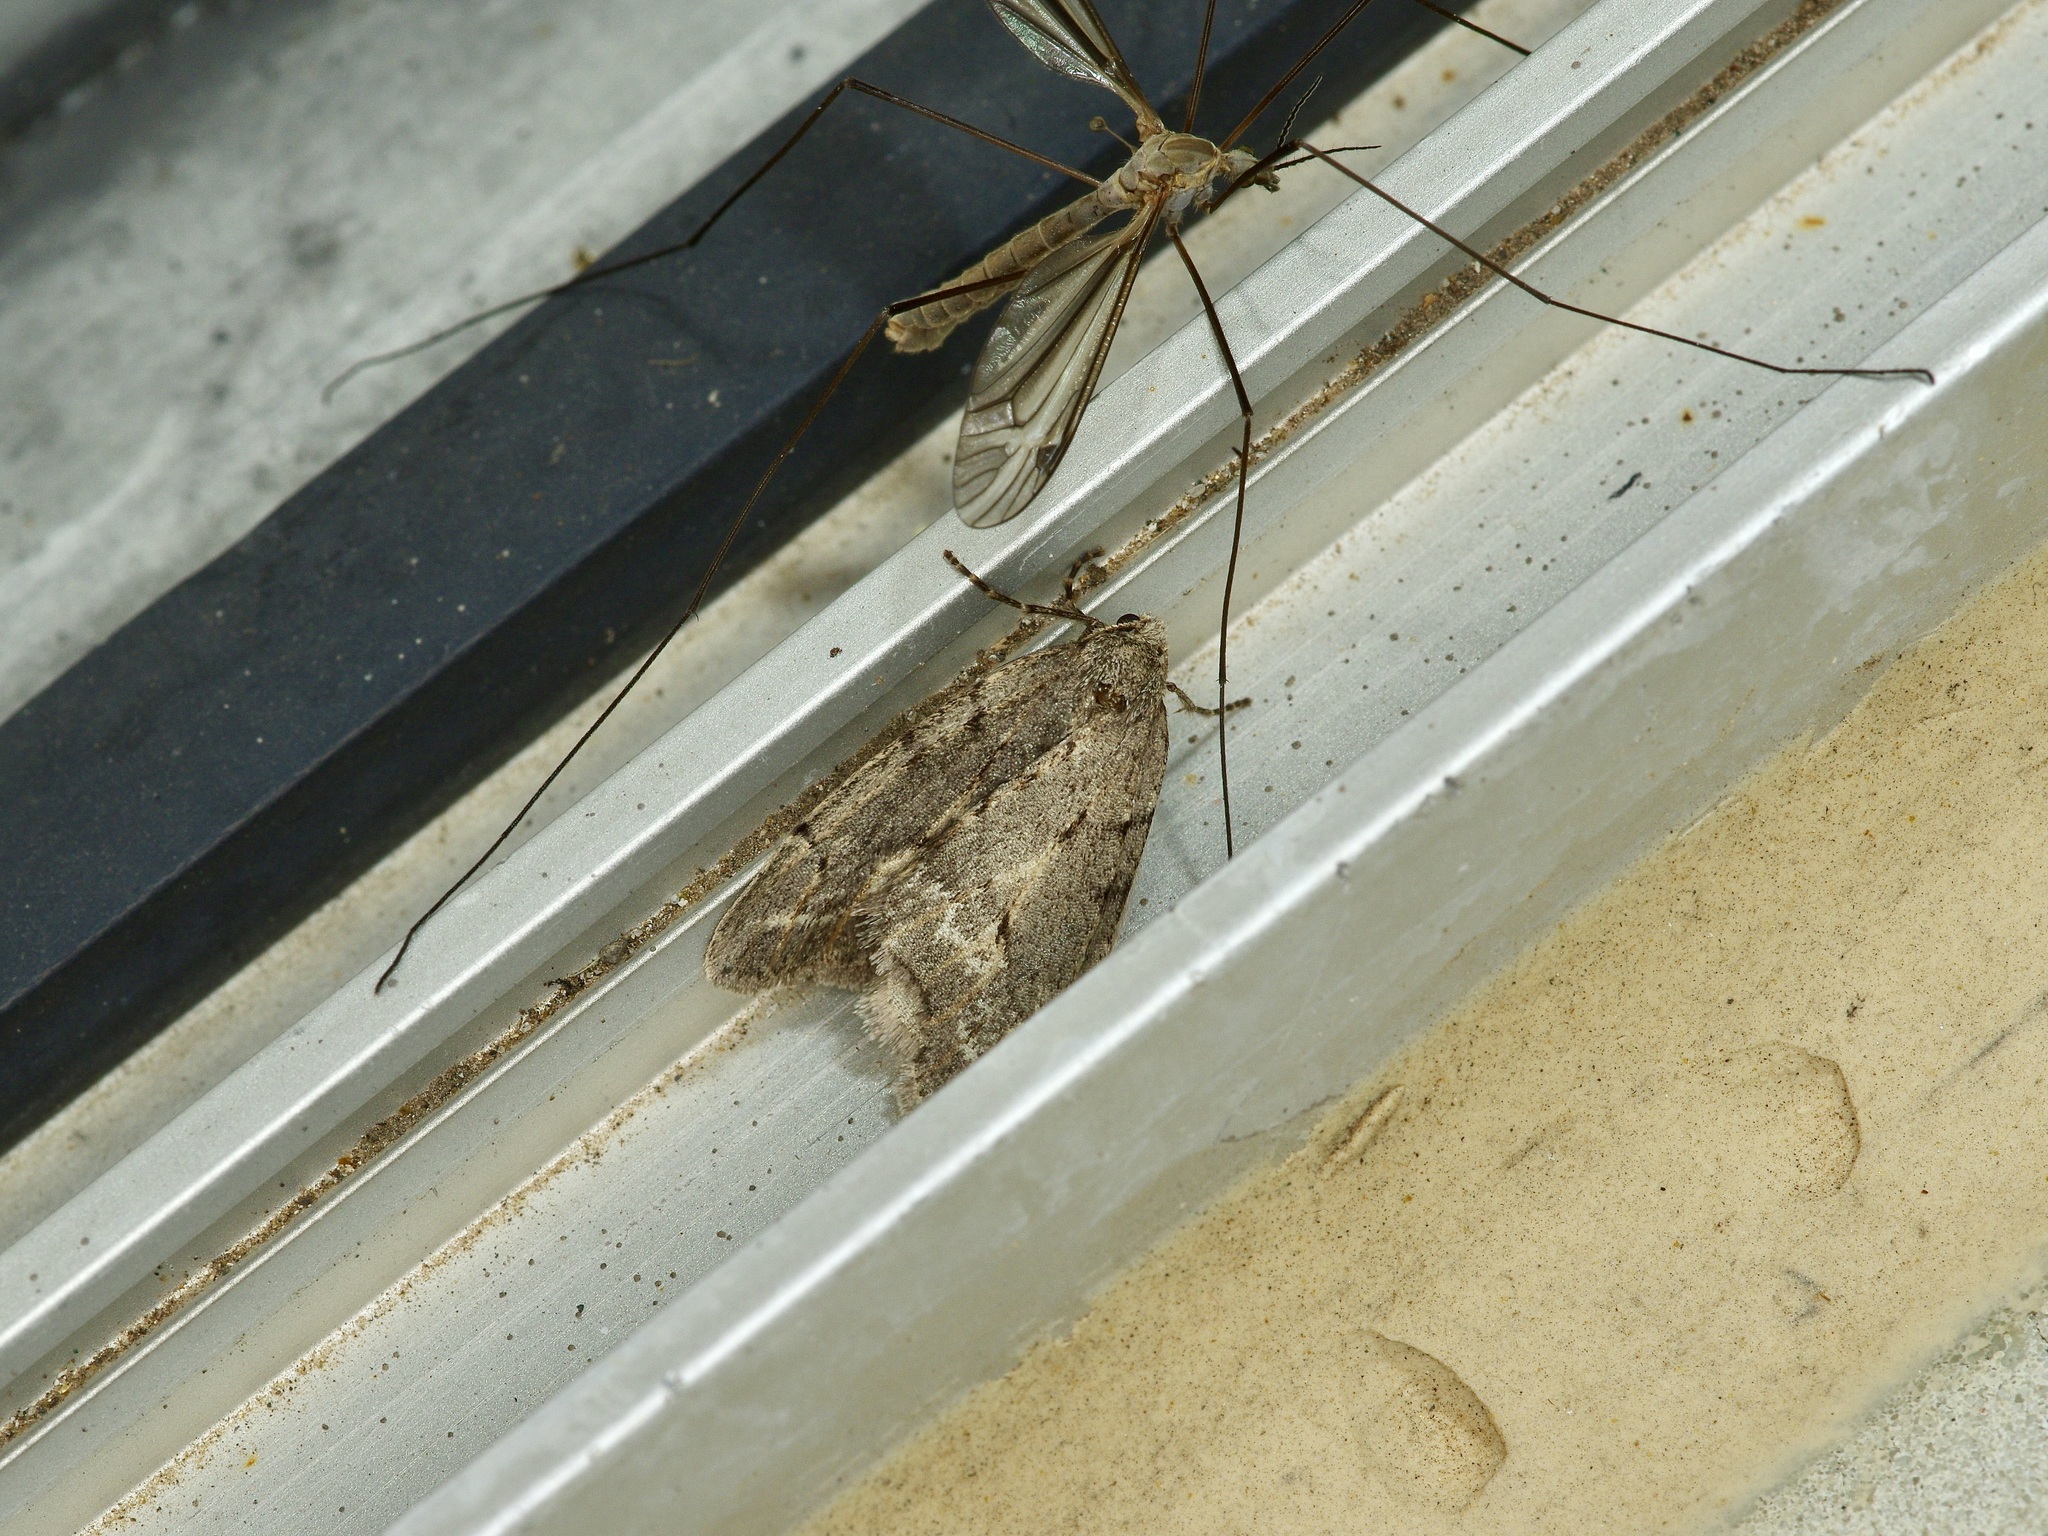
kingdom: Animalia
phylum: Arthropoda
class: Insecta
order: Lepidoptera
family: Geometridae
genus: Paleacrita
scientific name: Paleacrita vernata
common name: Spring cankerworm
